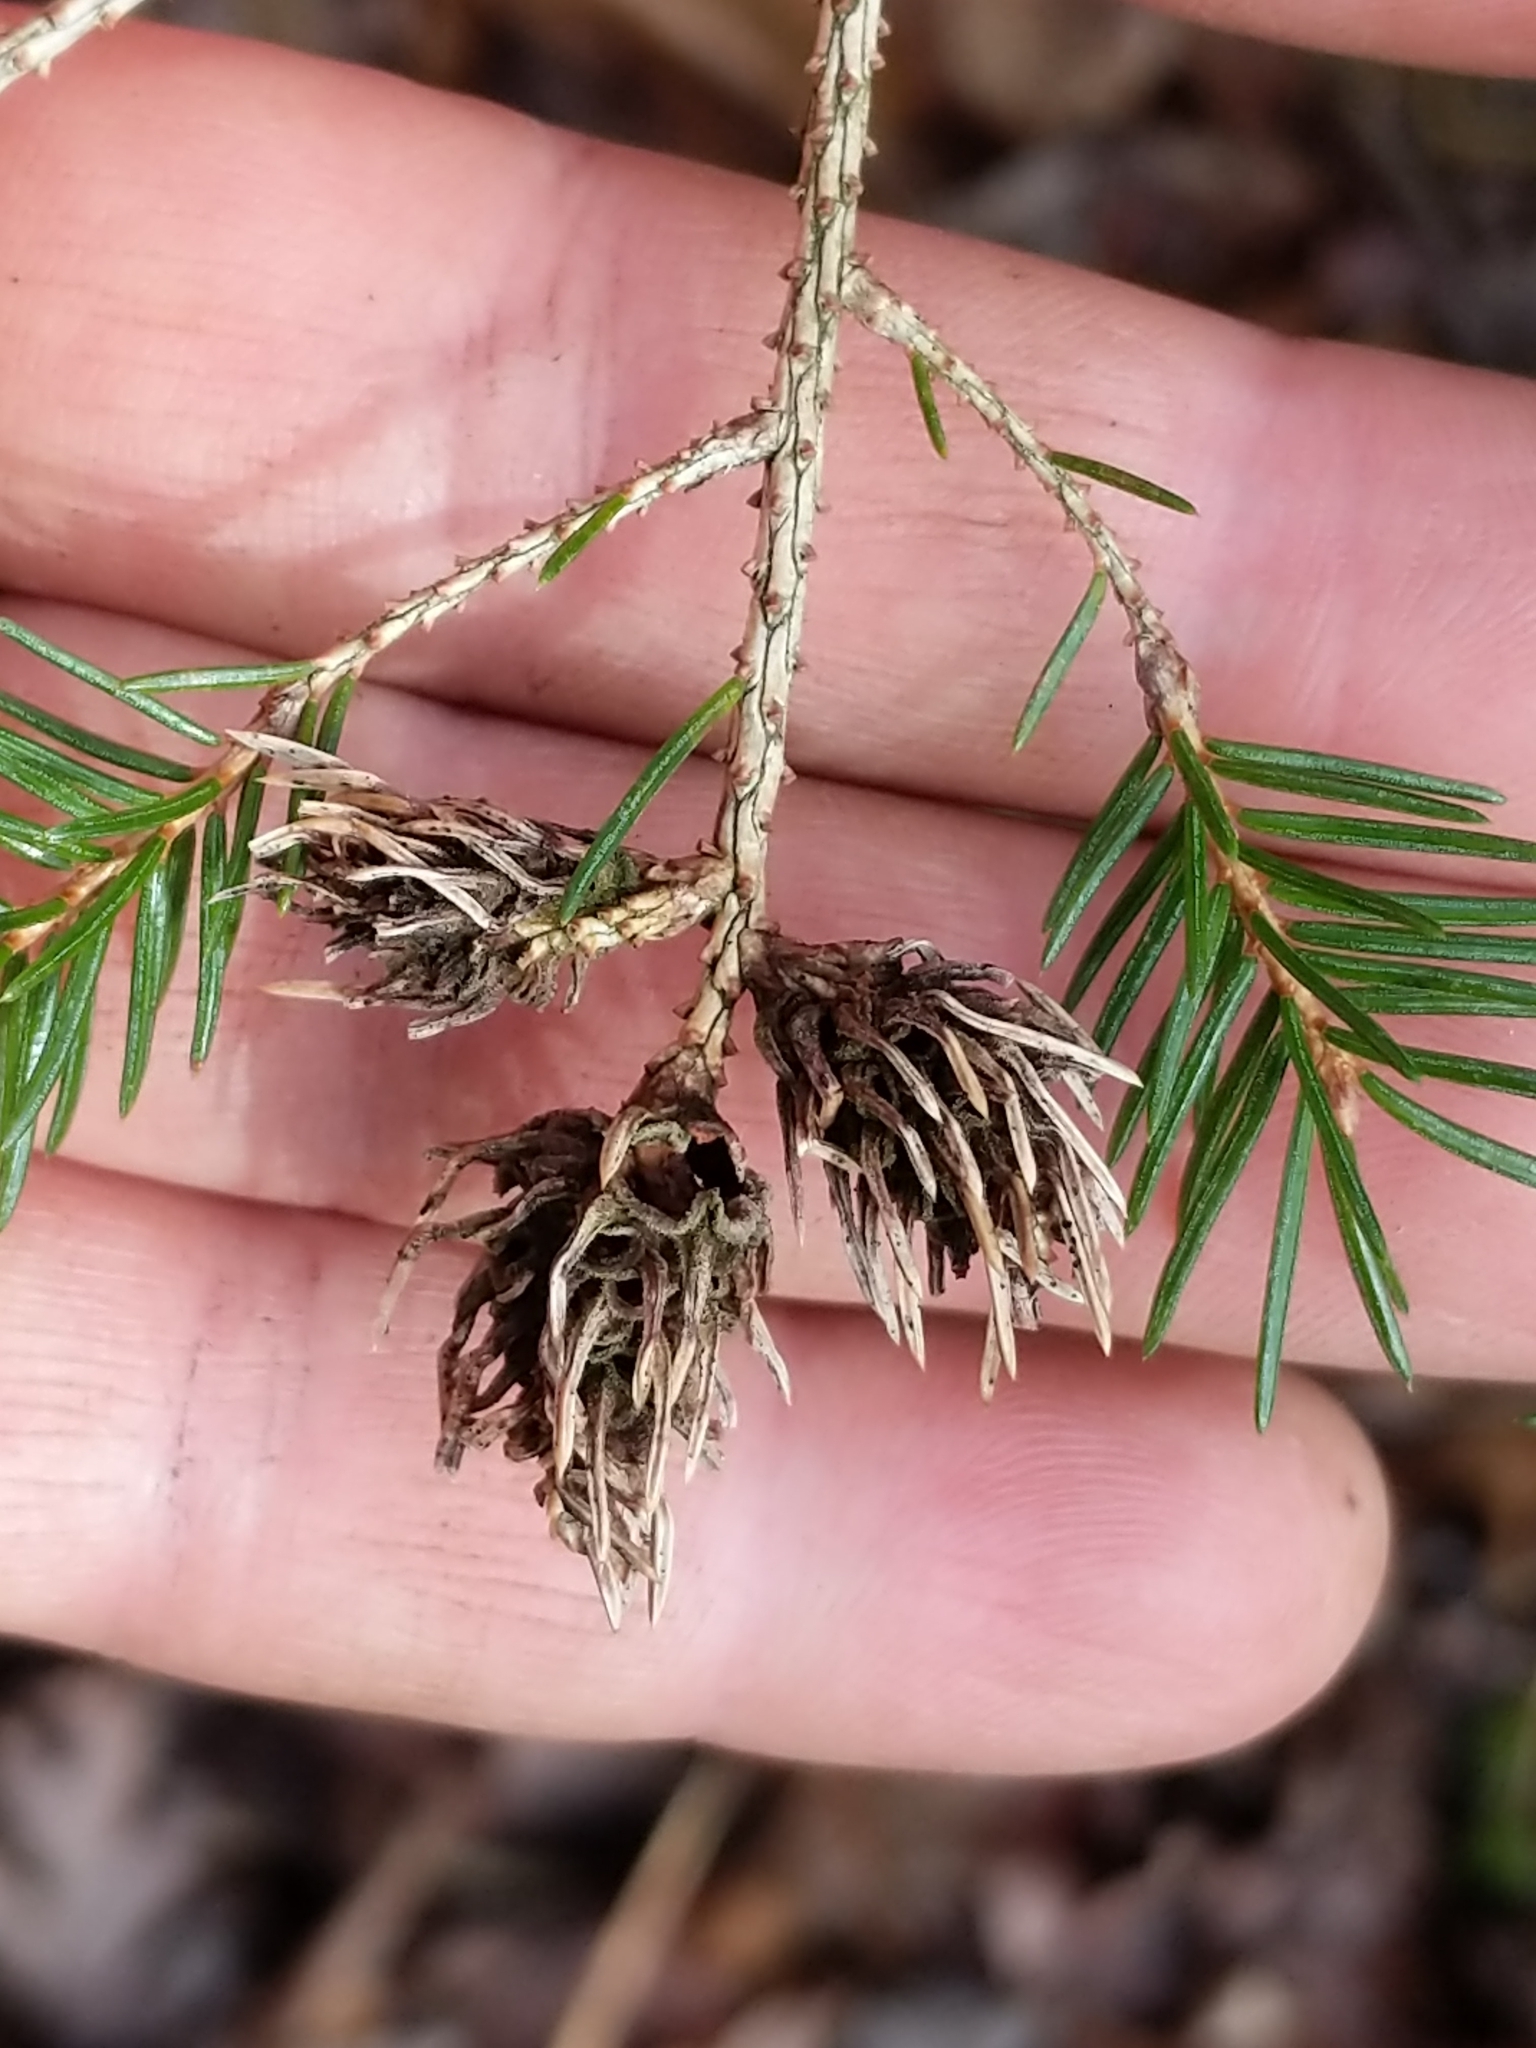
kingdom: Animalia
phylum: Arthropoda
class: Insecta
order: Hemiptera
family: Adelgidae
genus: Adelges
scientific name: Adelges abietis
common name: Eastern spruce gall adelgid
